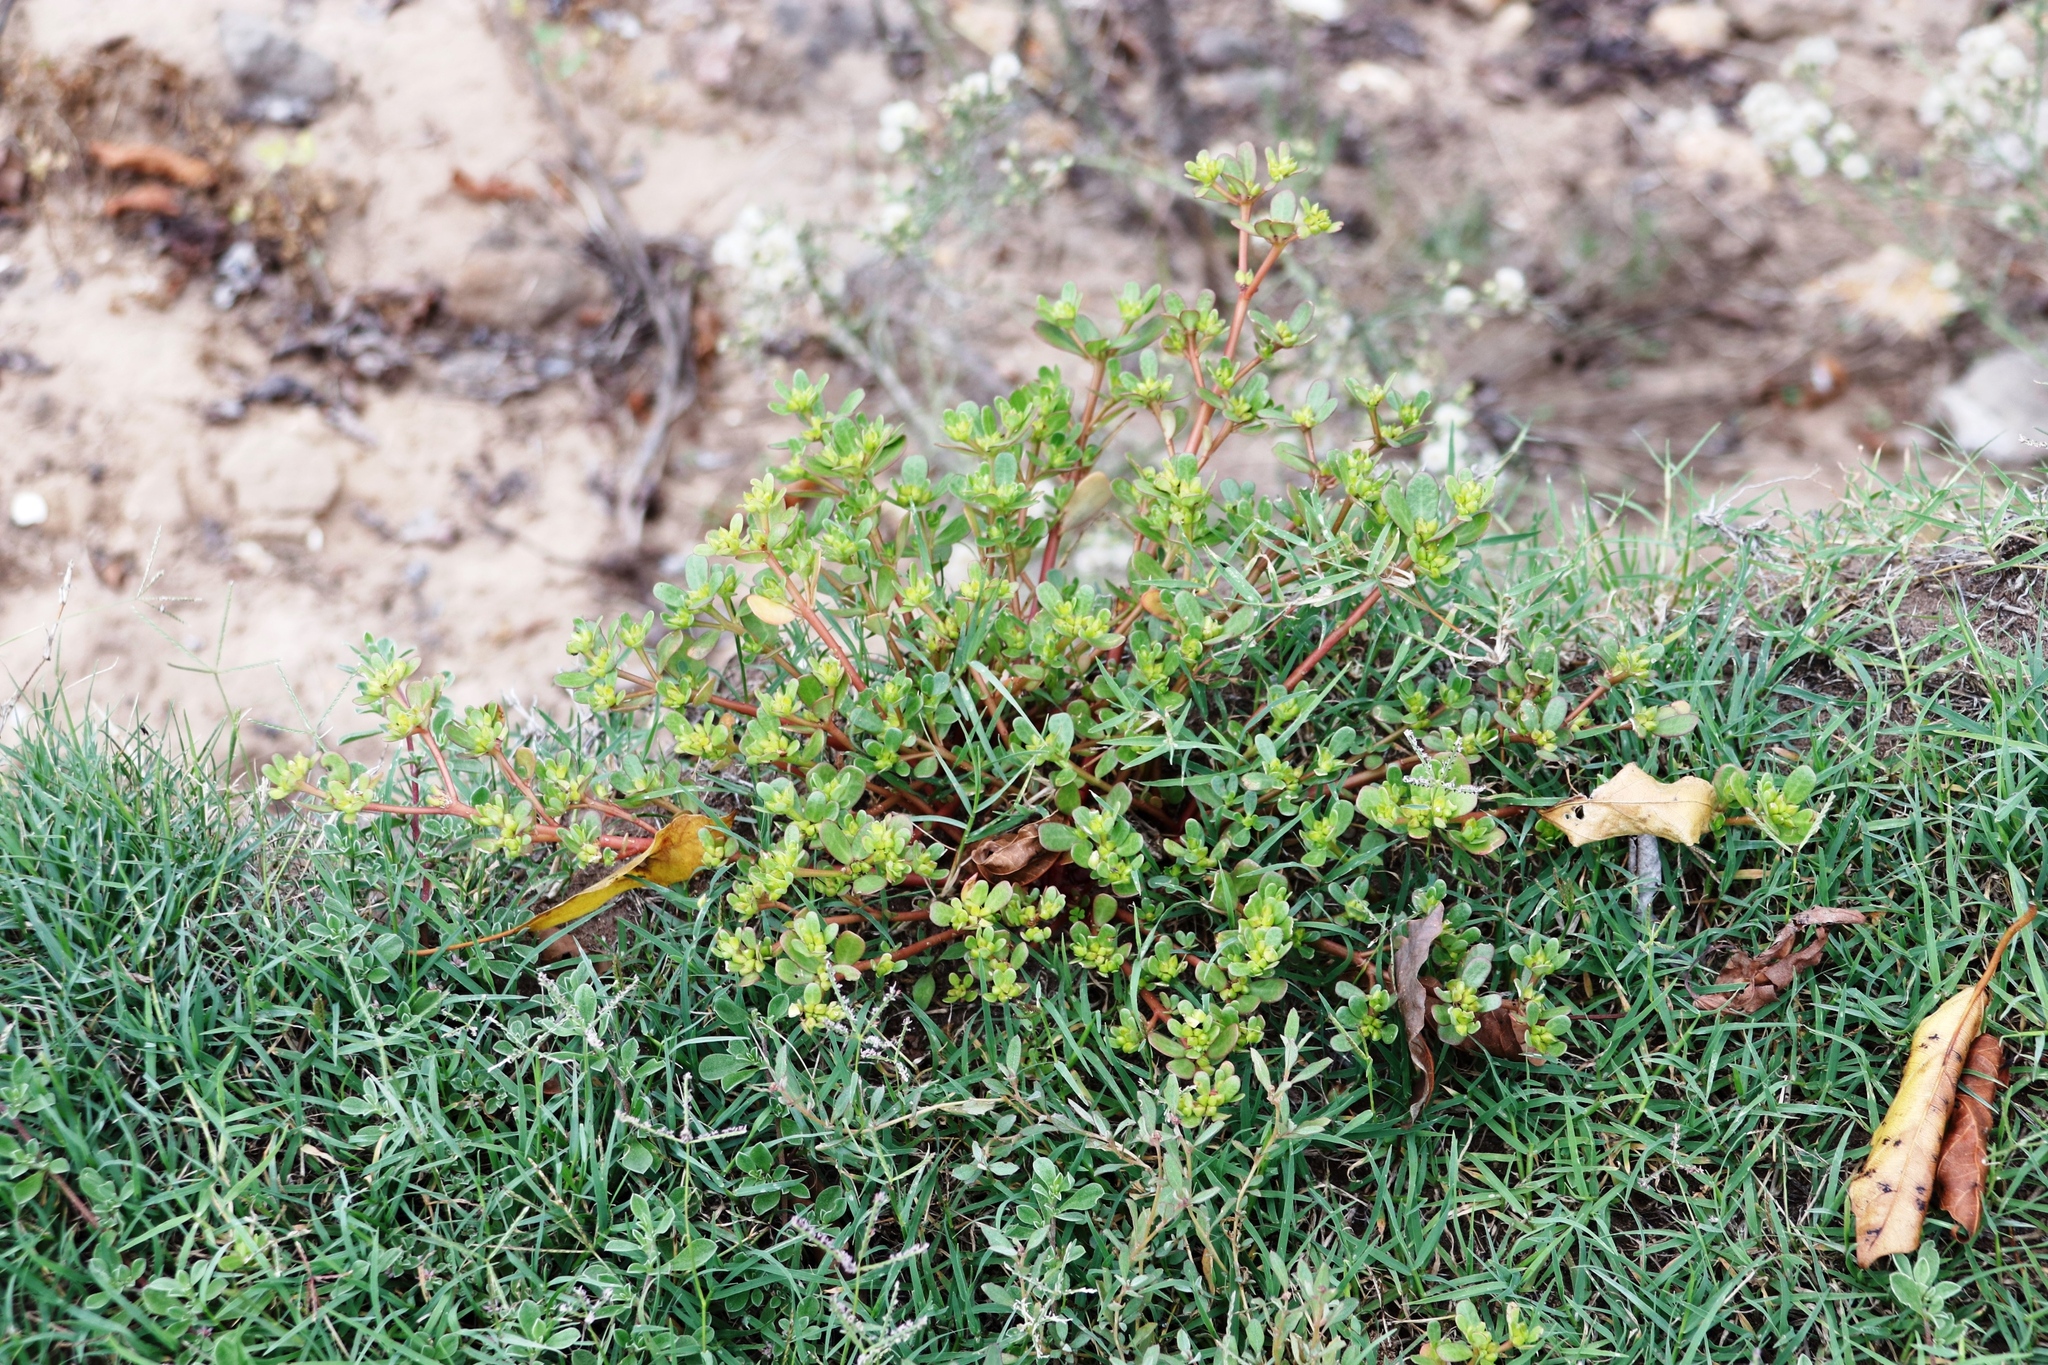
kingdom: Plantae
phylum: Tracheophyta
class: Magnoliopsida
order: Caryophyllales
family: Portulacaceae
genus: Portulaca
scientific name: Portulaca oleracea
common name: Common purslane
